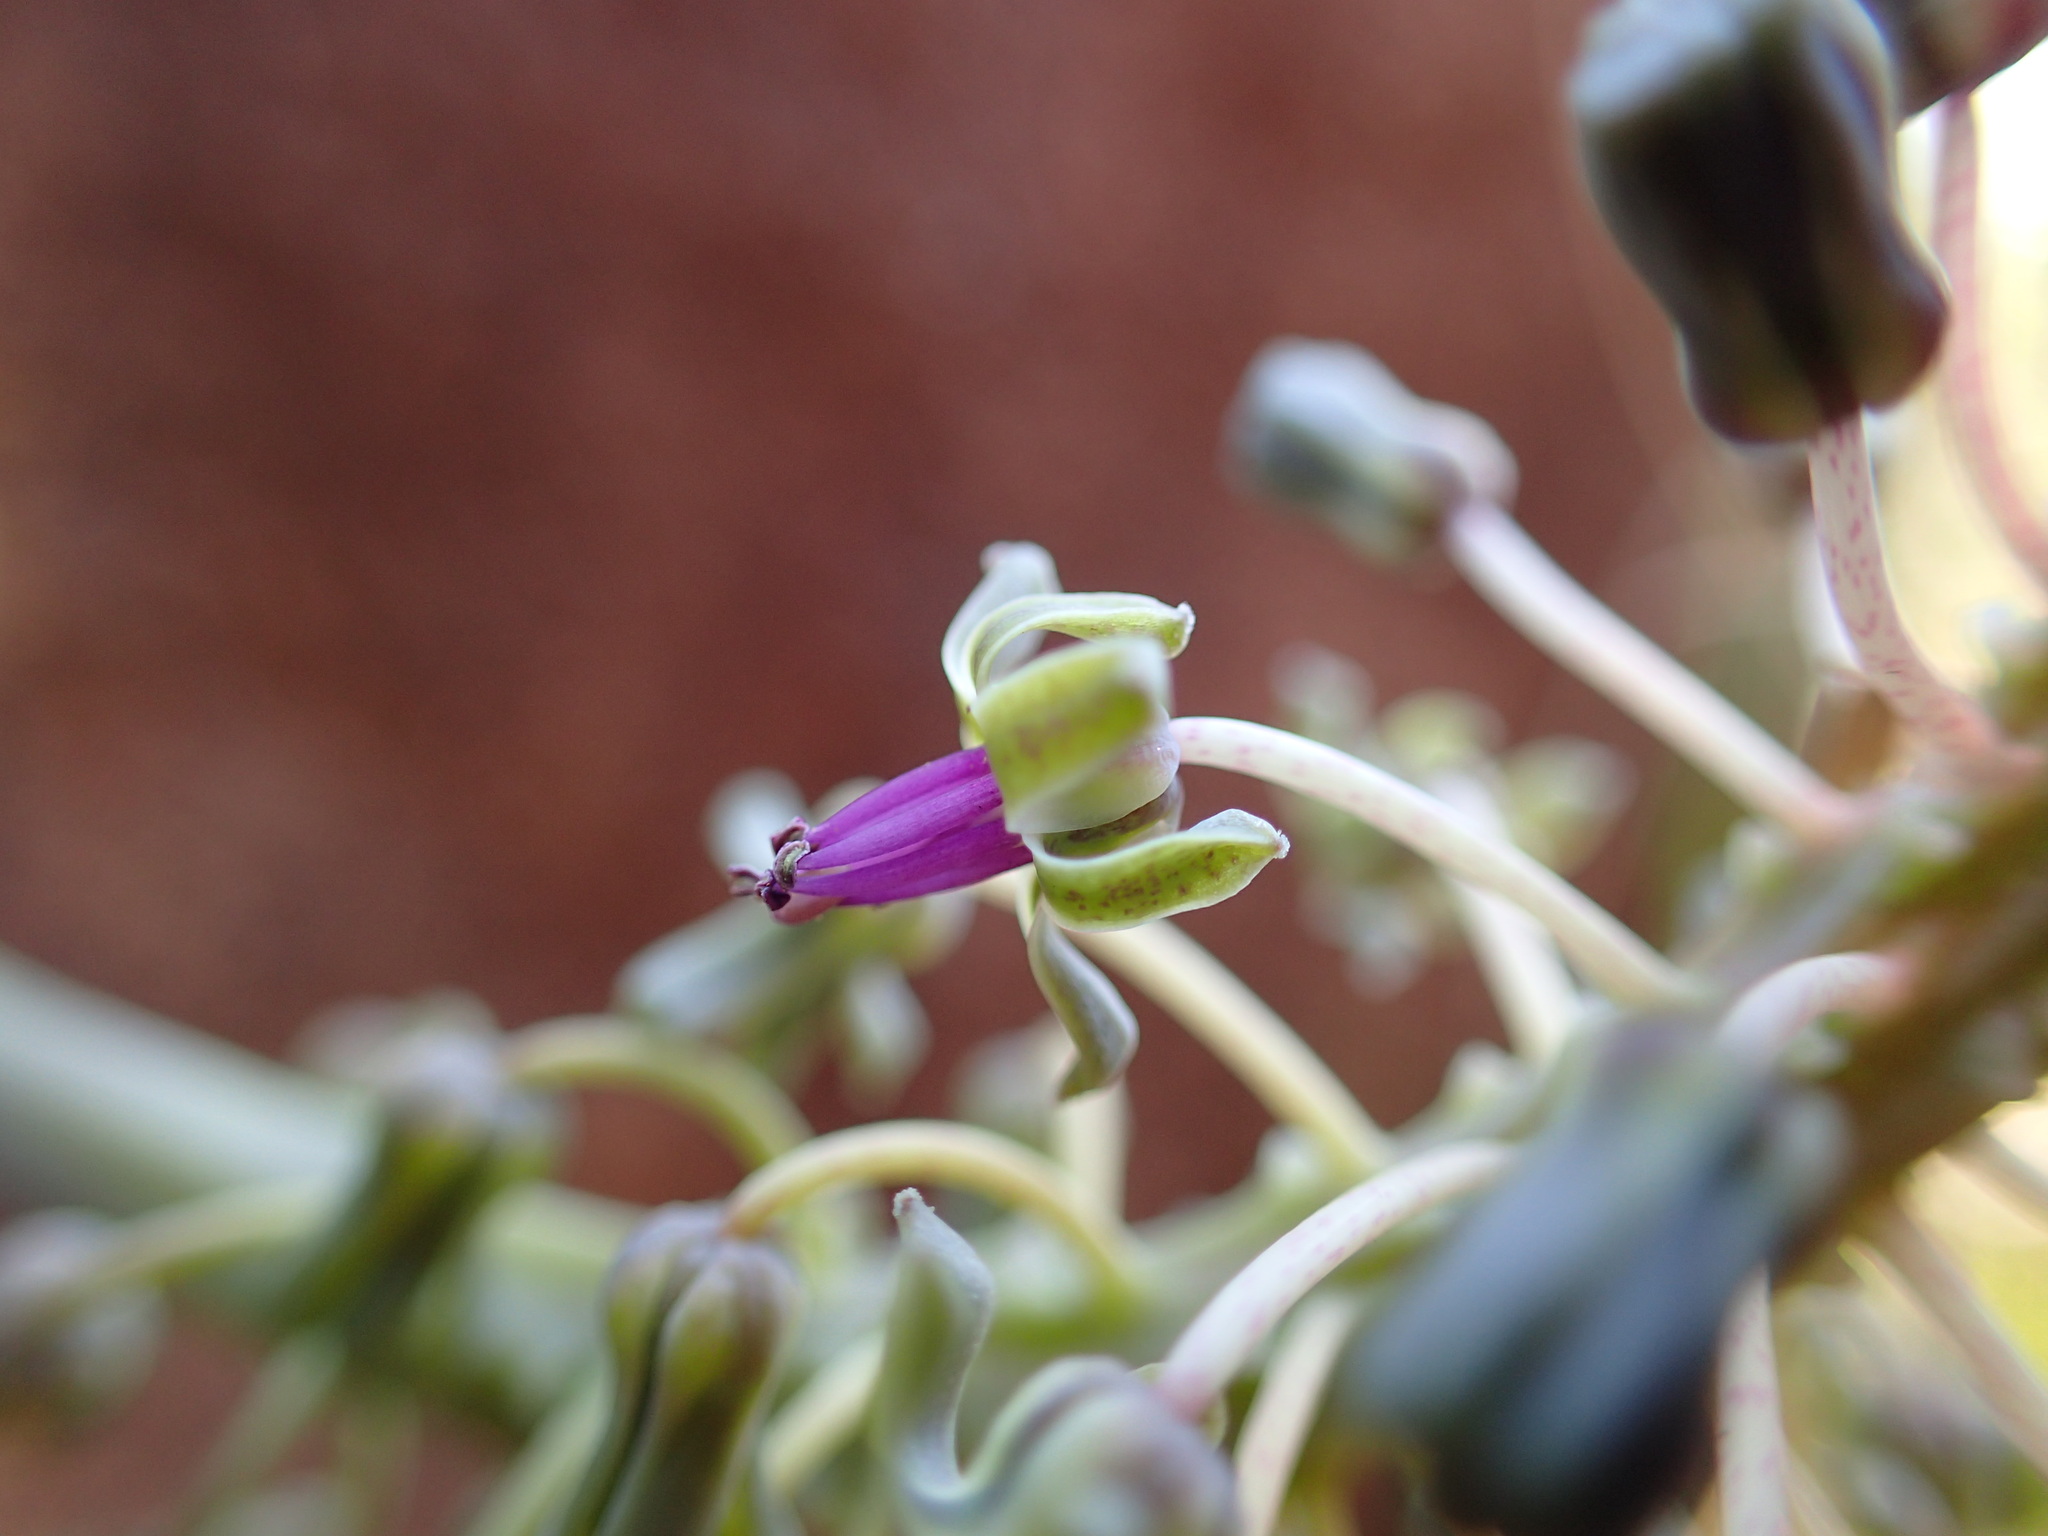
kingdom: Plantae
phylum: Tracheophyta
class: Liliopsida
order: Asparagales
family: Asparagaceae
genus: Ledebouria
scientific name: Ledebouria floribunda
